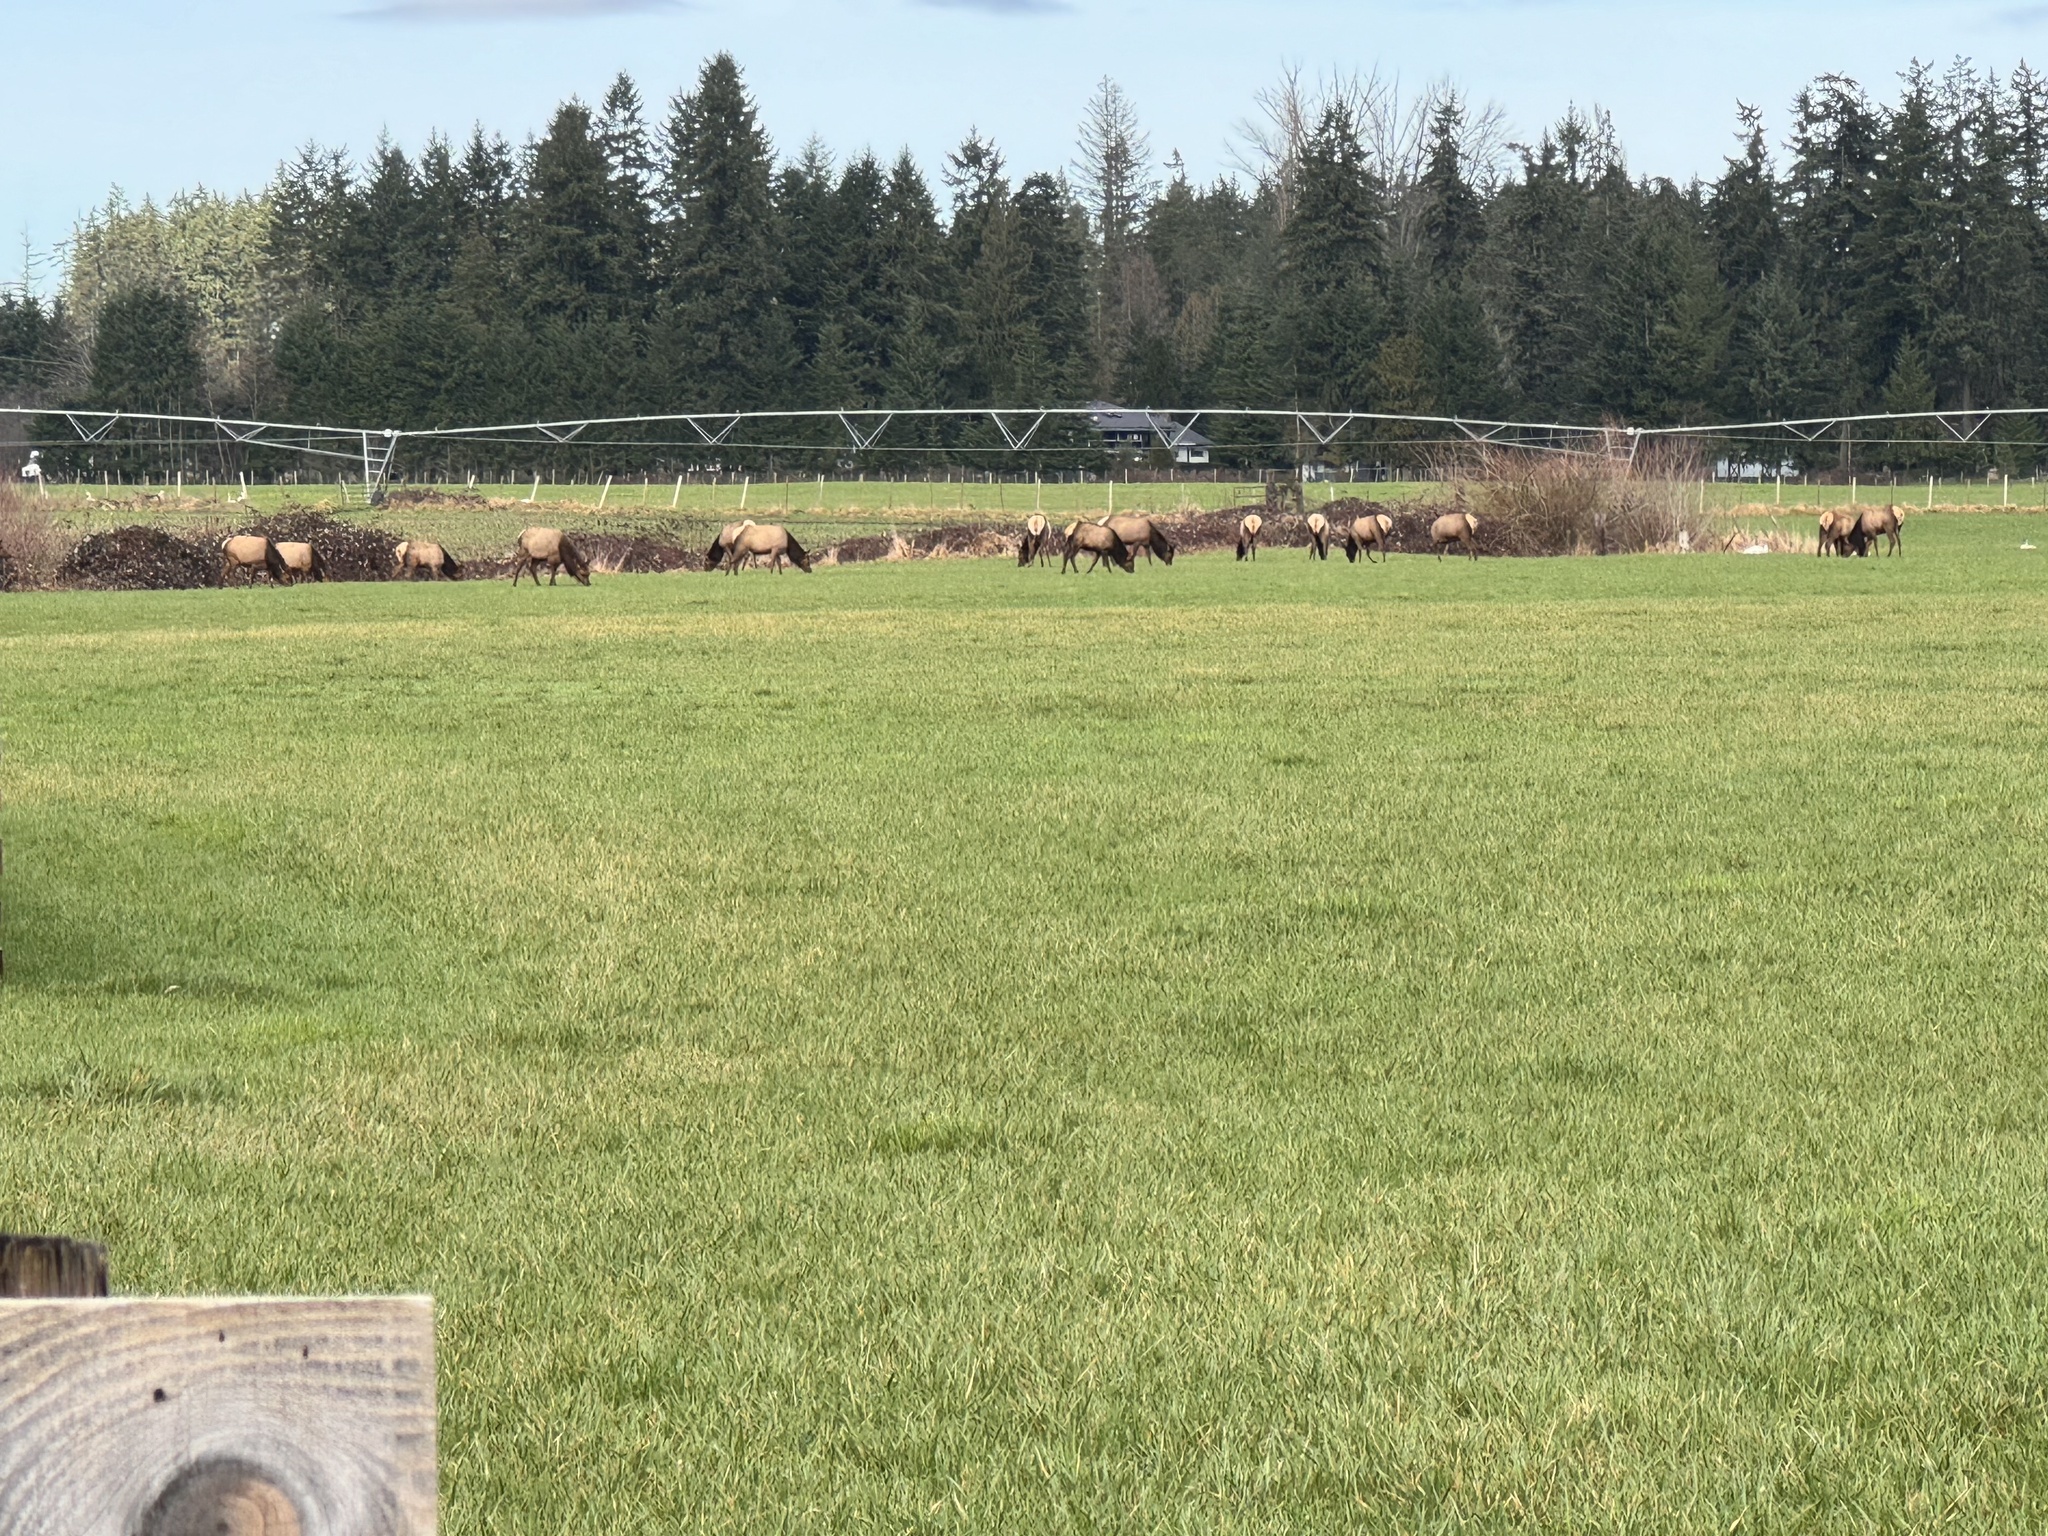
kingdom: Animalia
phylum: Chordata
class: Mammalia
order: Artiodactyla
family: Cervidae
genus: Cervus
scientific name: Cervus elaphus
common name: Red deer
